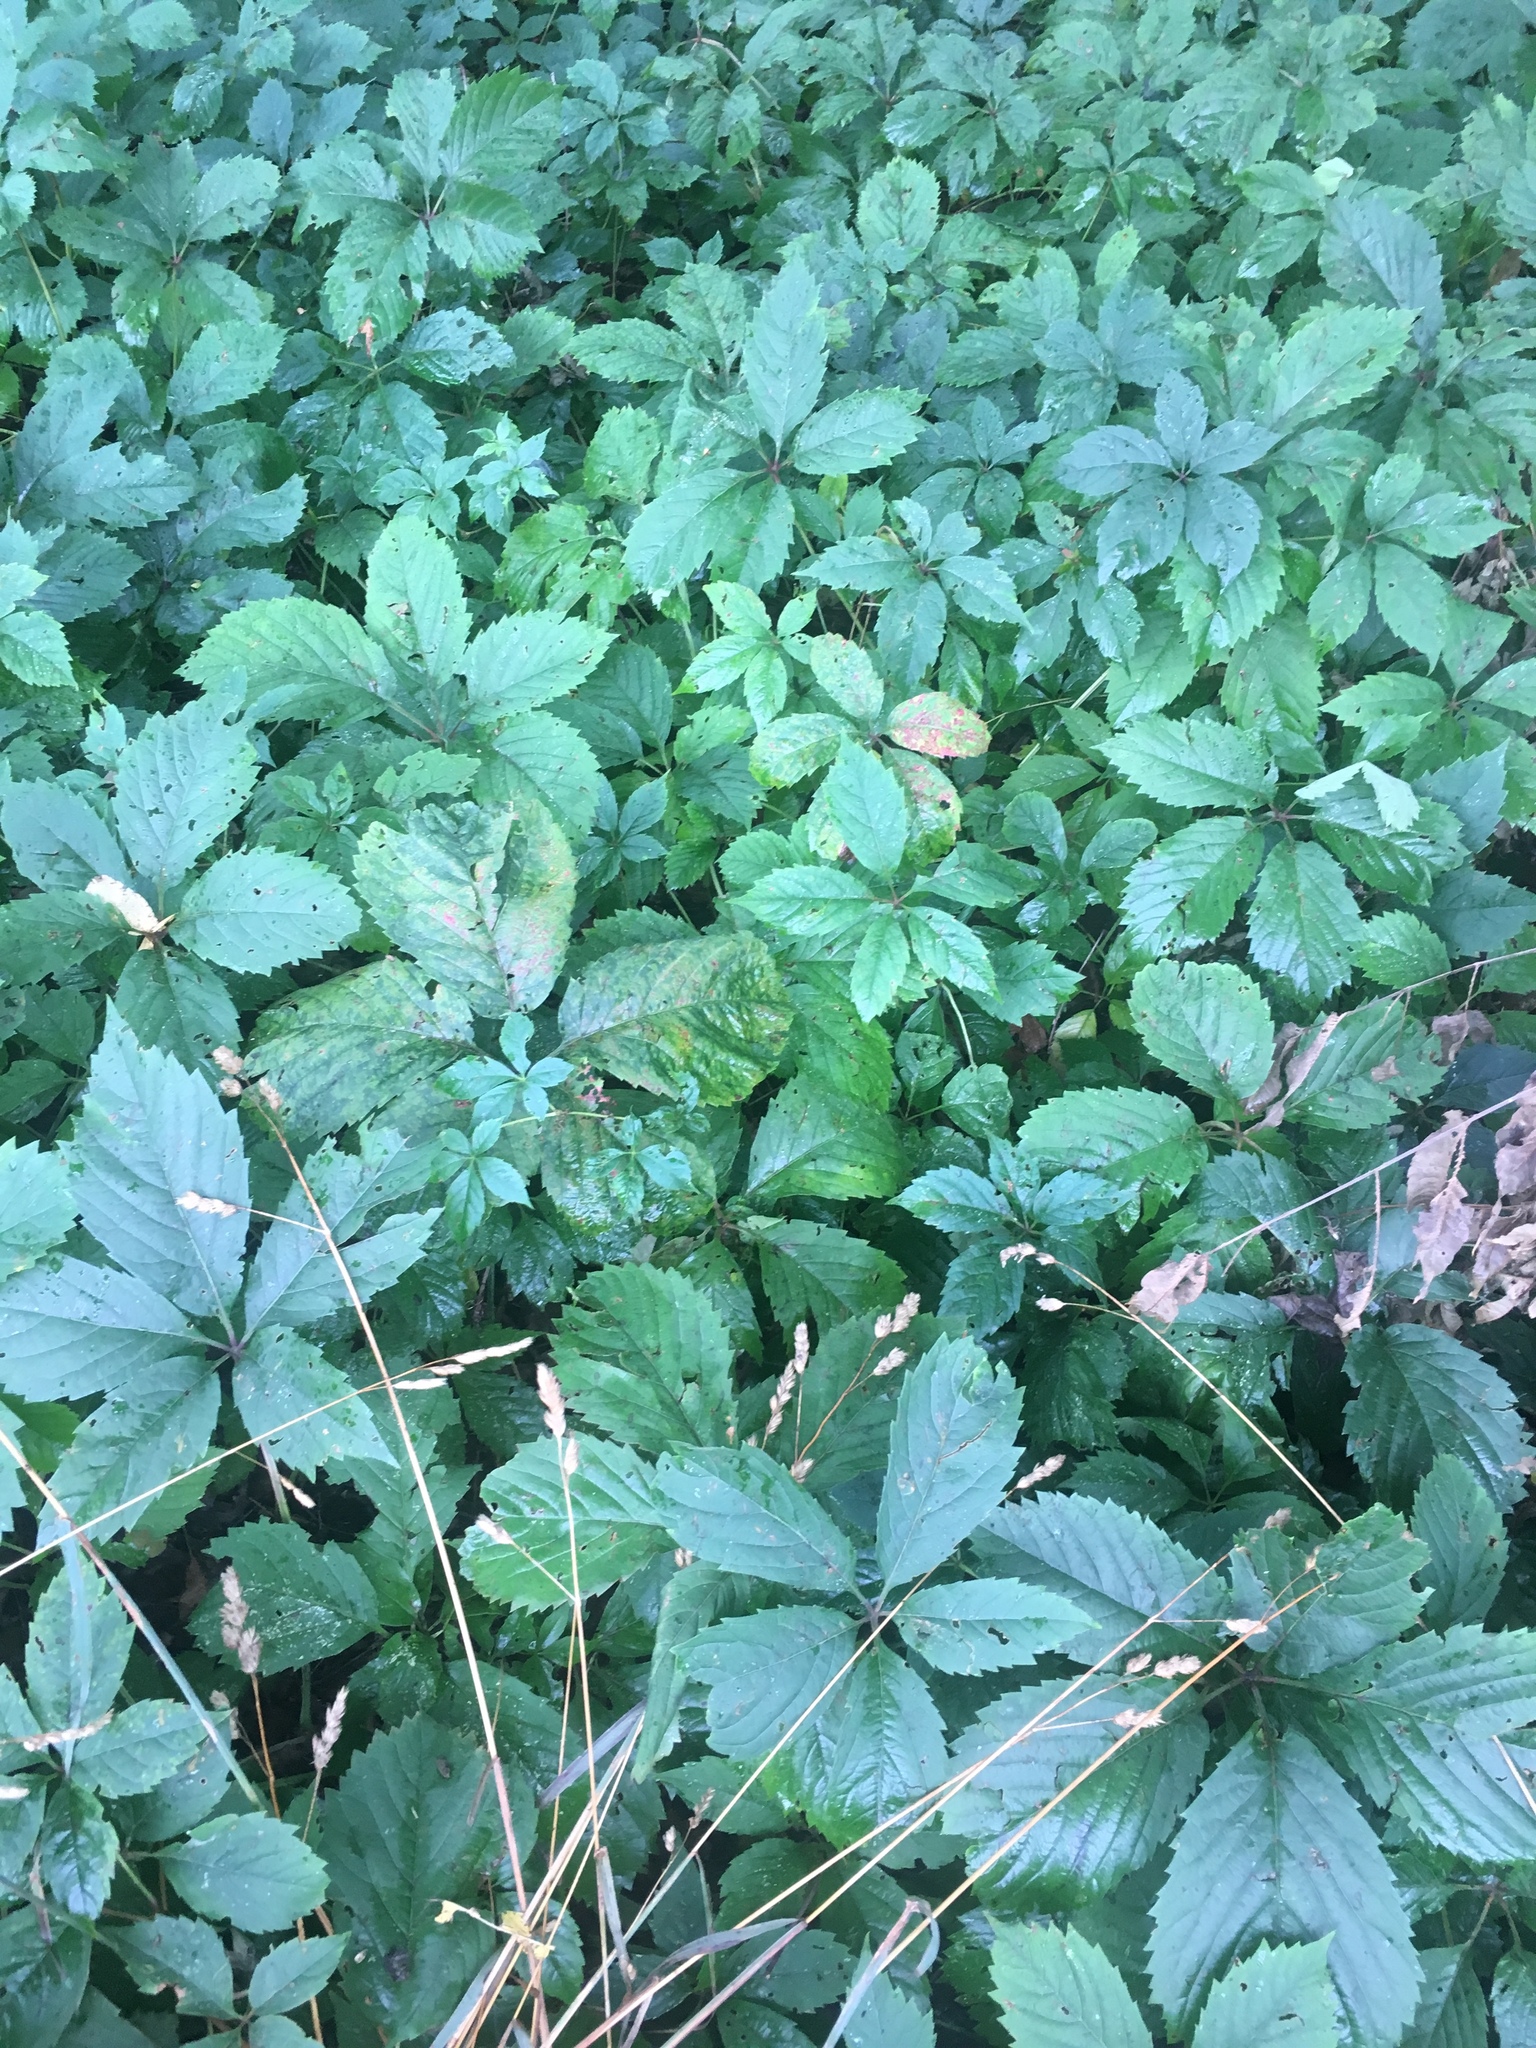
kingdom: Plantae
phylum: Tracheophyta
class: Magnoliopsida
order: Vitales
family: Vitaceae
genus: Parthenocissus
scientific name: Parthenocissus quinquefolia
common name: Virginia-creeper
